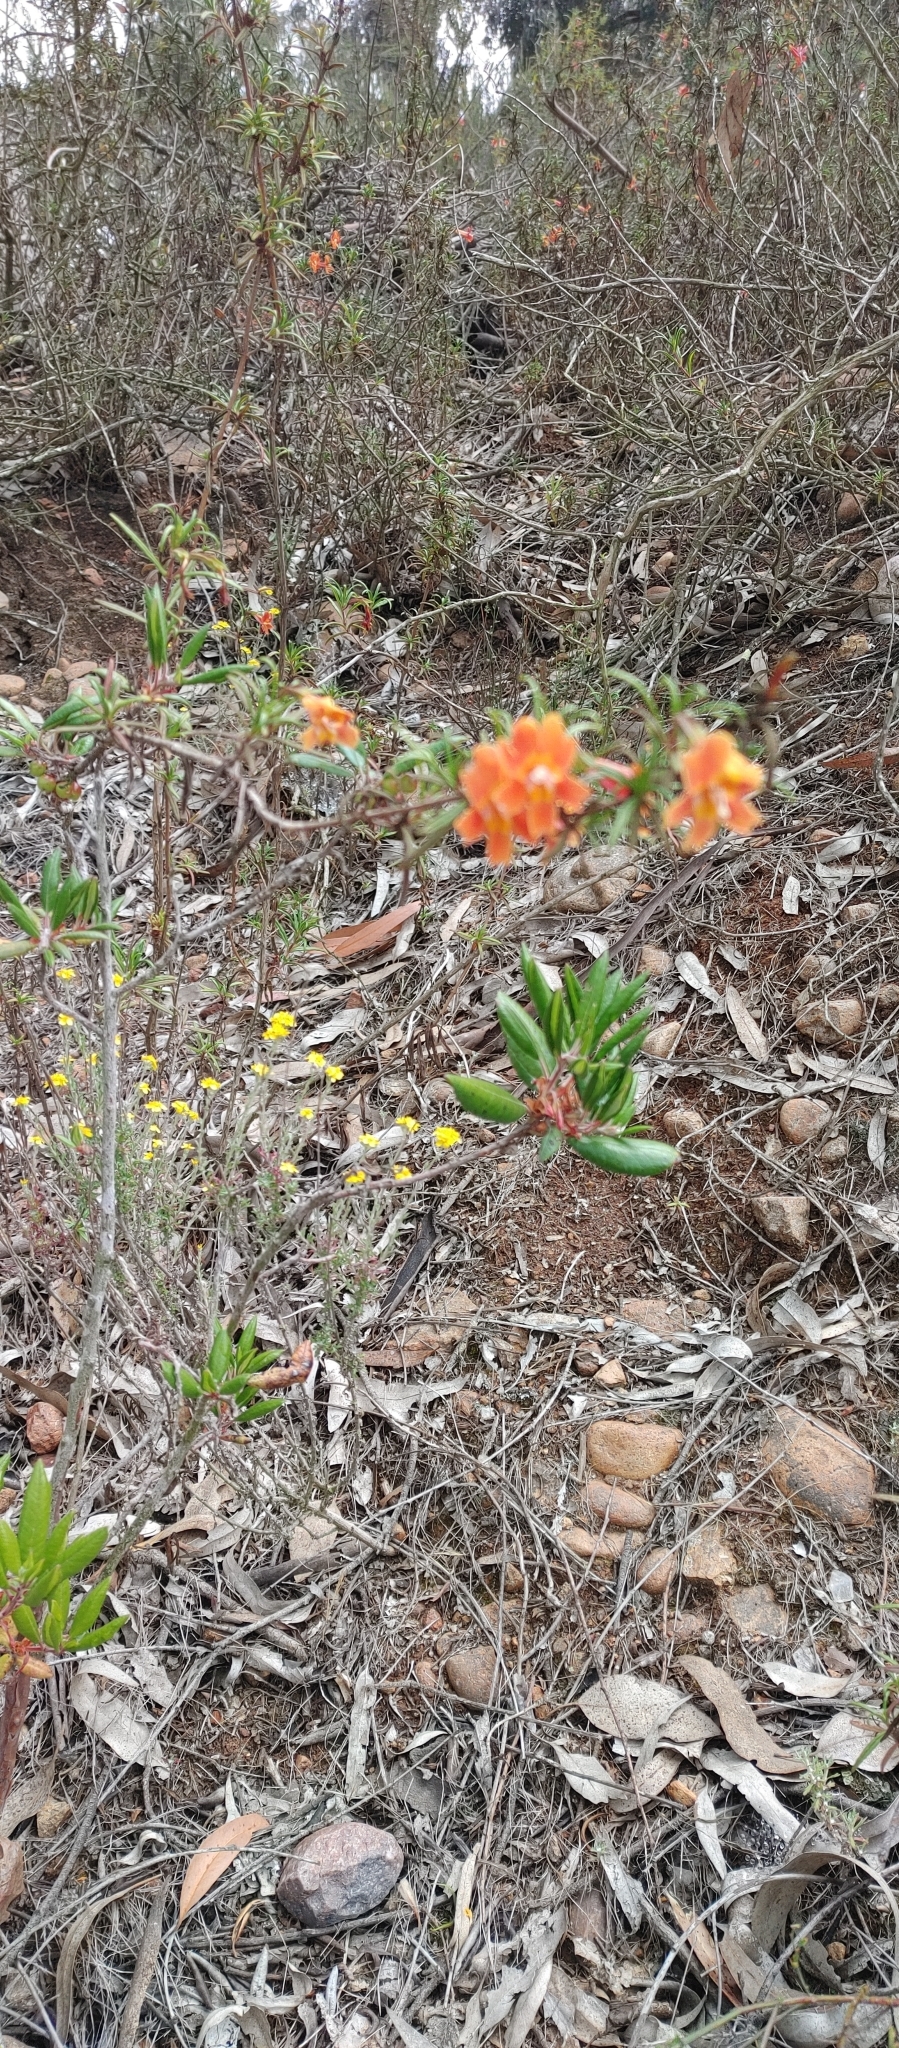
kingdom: Plantae
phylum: Tracheophyta
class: Magnoliopsida
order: Lamiales
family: Phrymaceae
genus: Diplacus
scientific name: Diplacus australis
